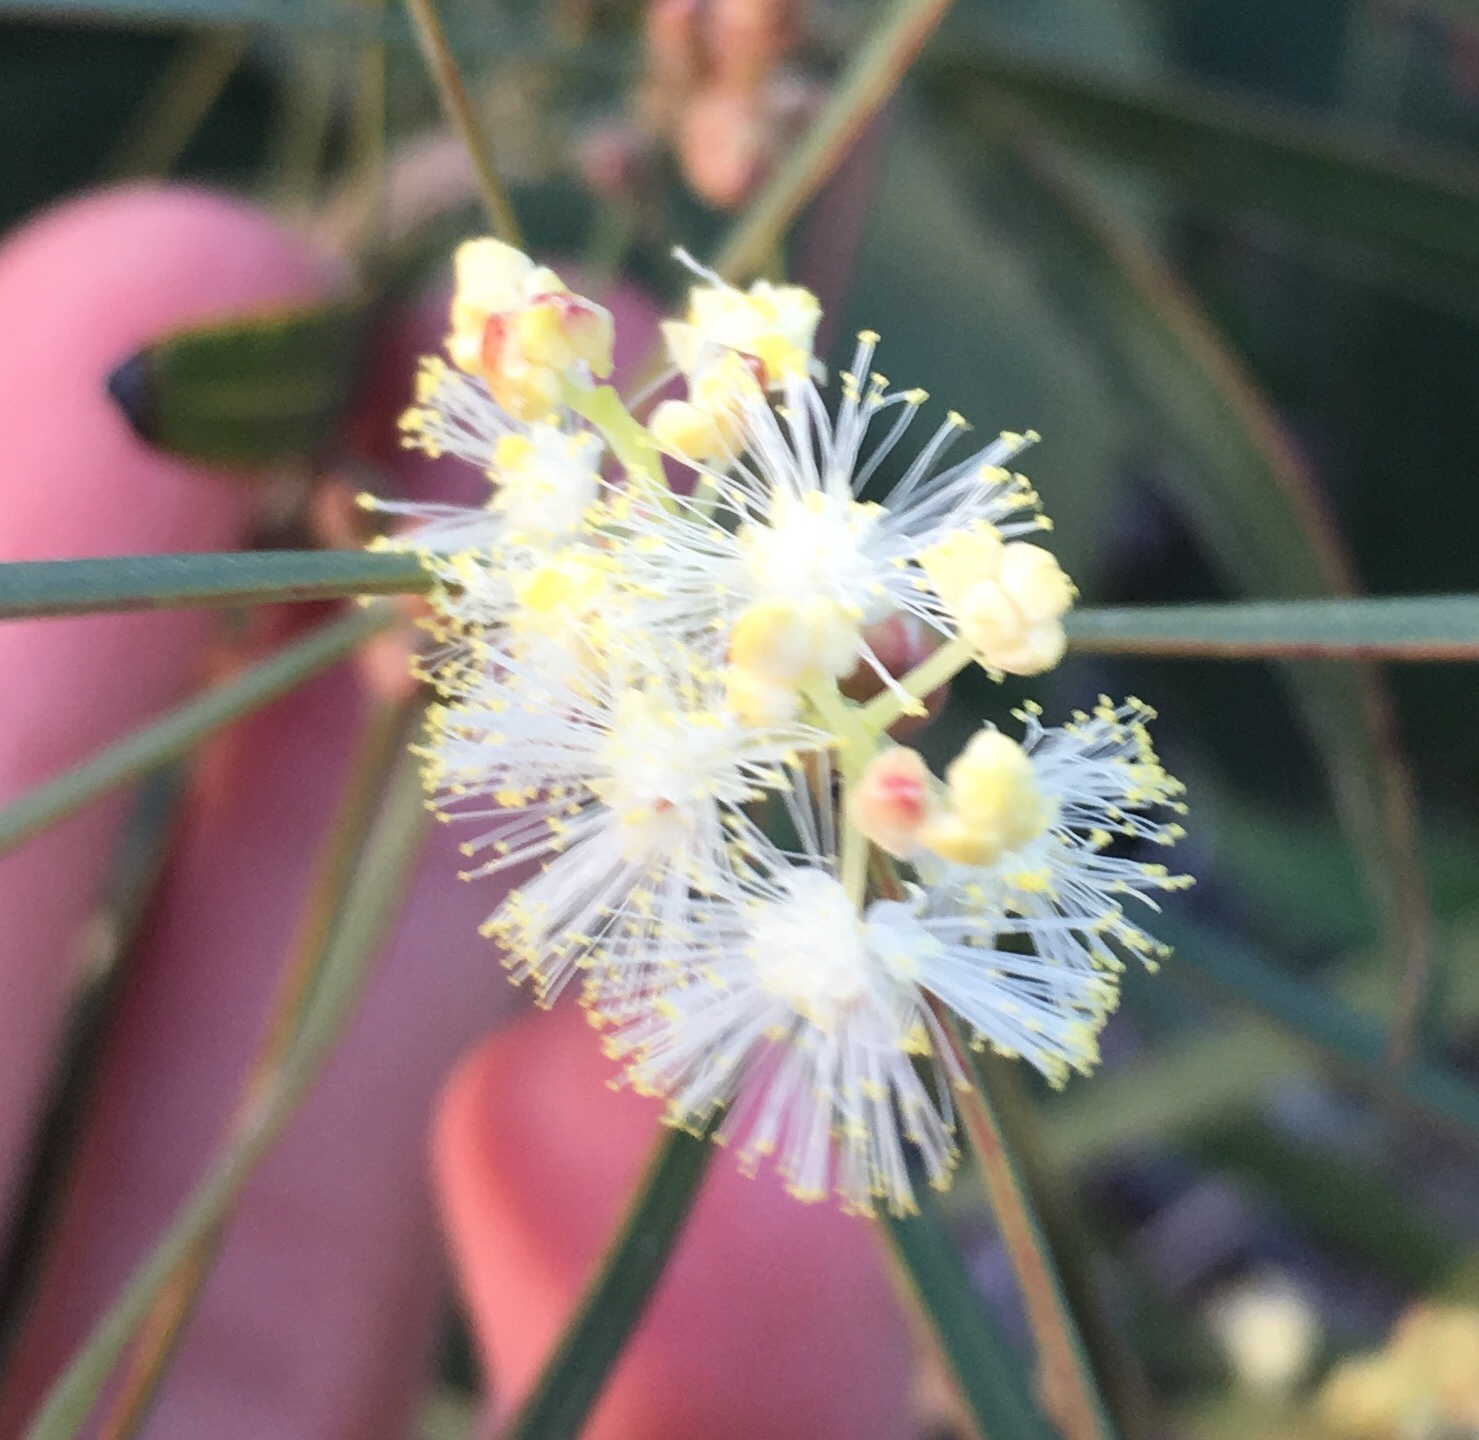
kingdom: Plantae
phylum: Tracheophyta
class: Magnoliopsida
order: Fabales
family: Fabaceae
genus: Acacia
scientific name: Acacia suaveolens
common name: Sweet acacia
